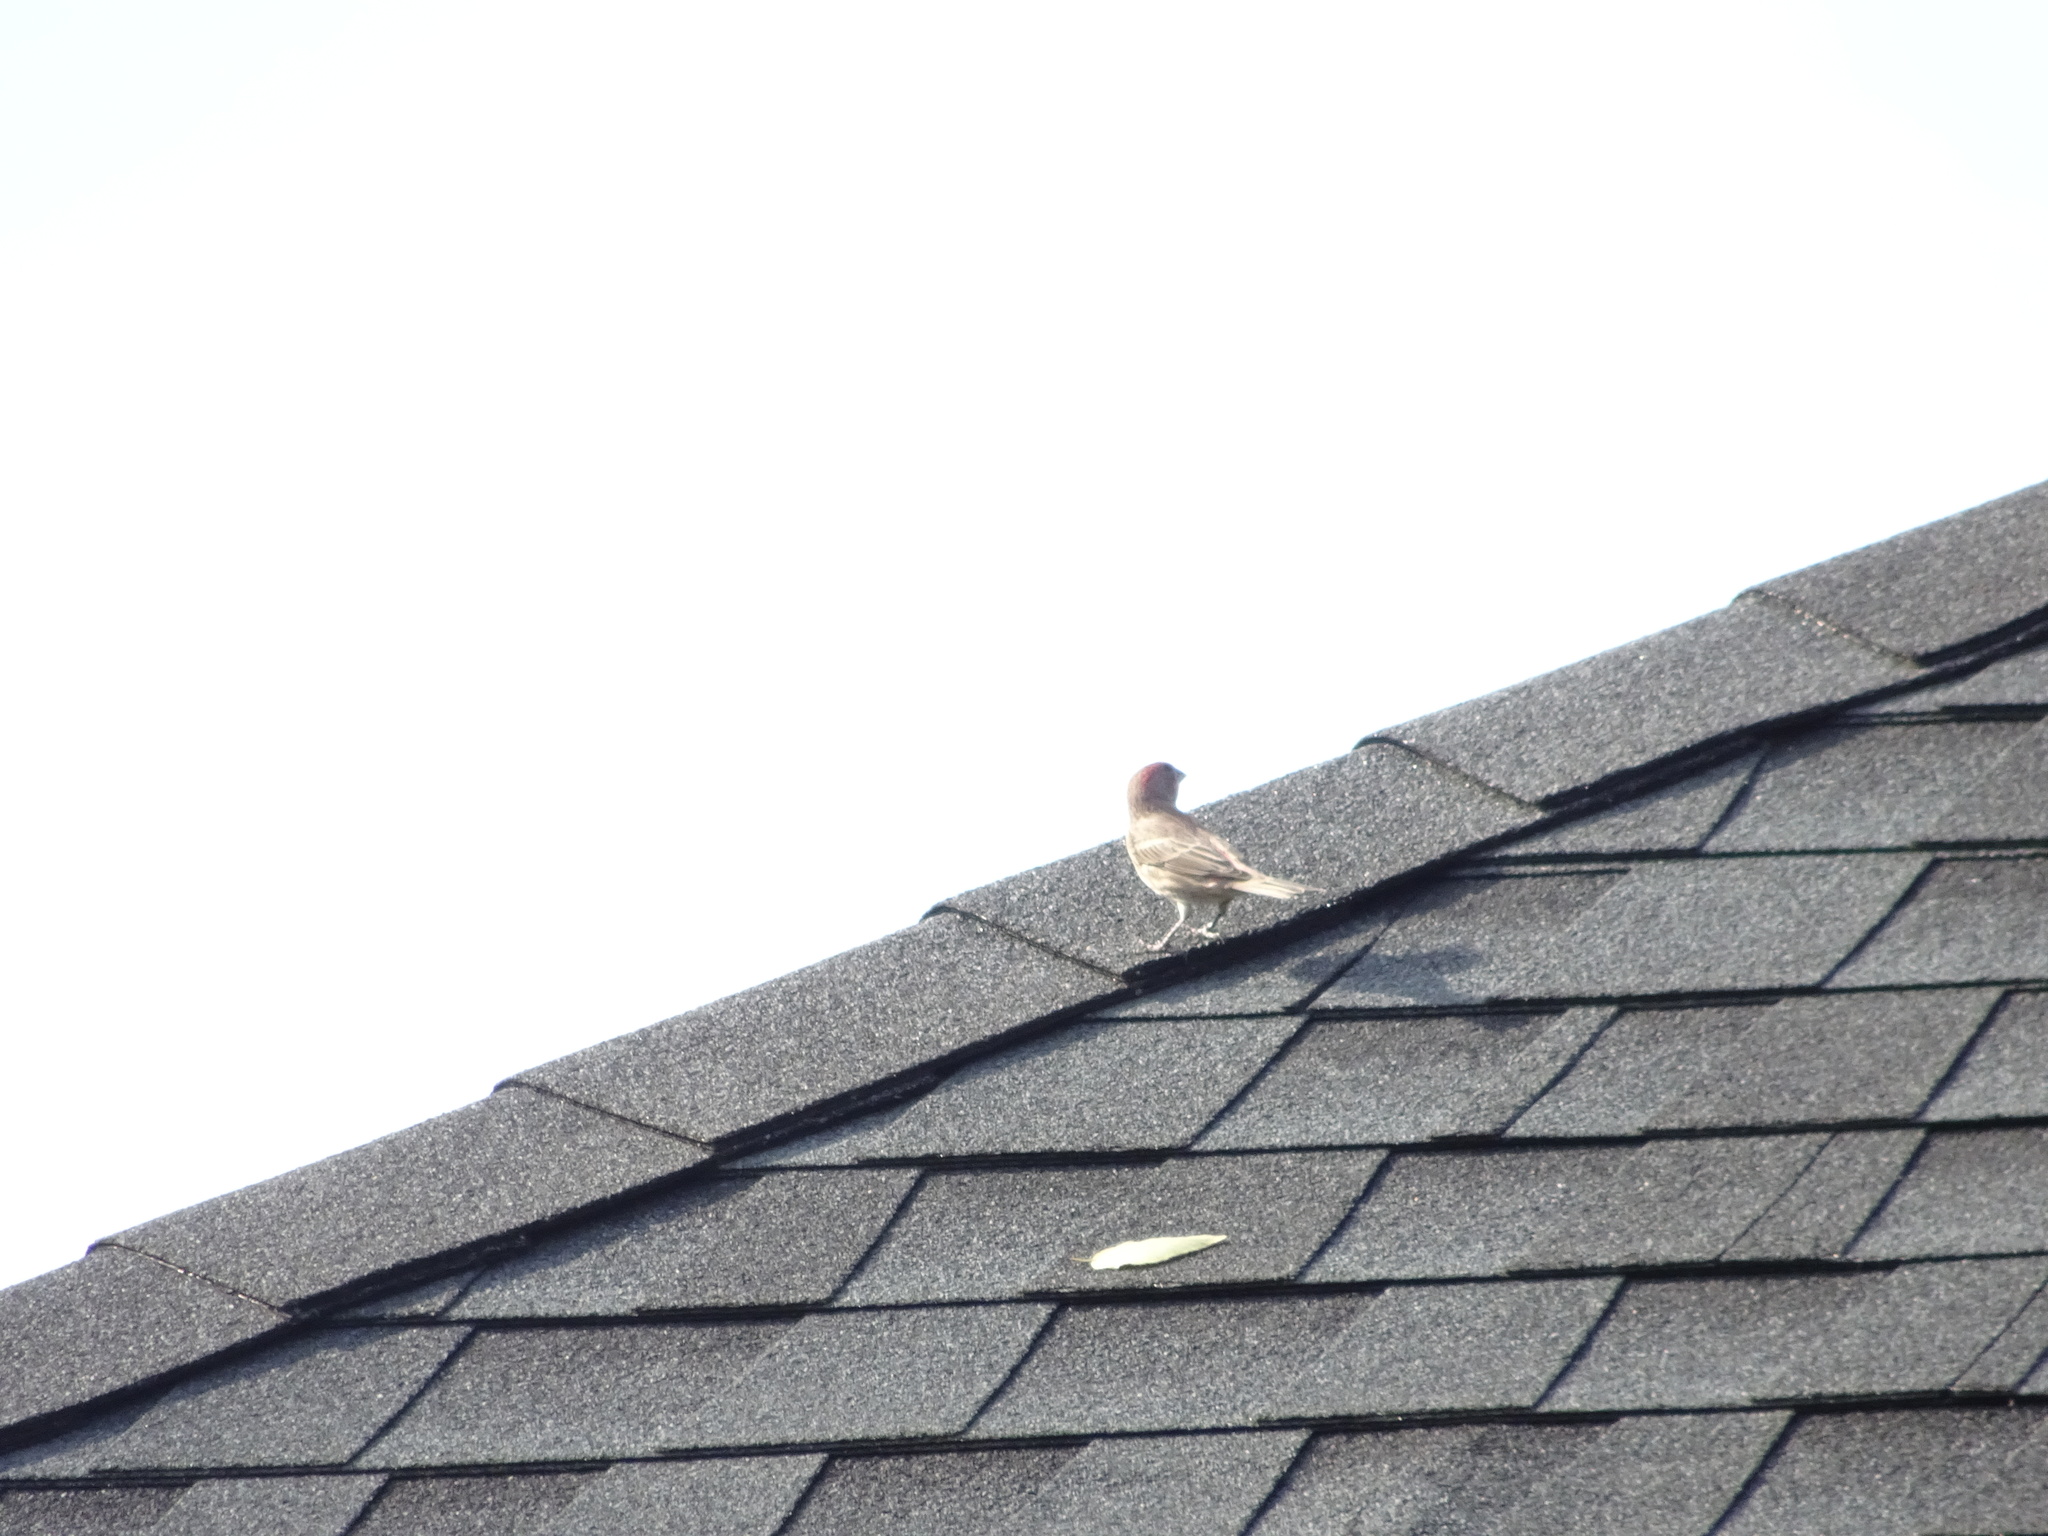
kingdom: Animalia
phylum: Chordata
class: Aves
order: Passeriformes
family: Fringillidae
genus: Haemorhous
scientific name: Haemorhous mexicanus
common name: House finch
